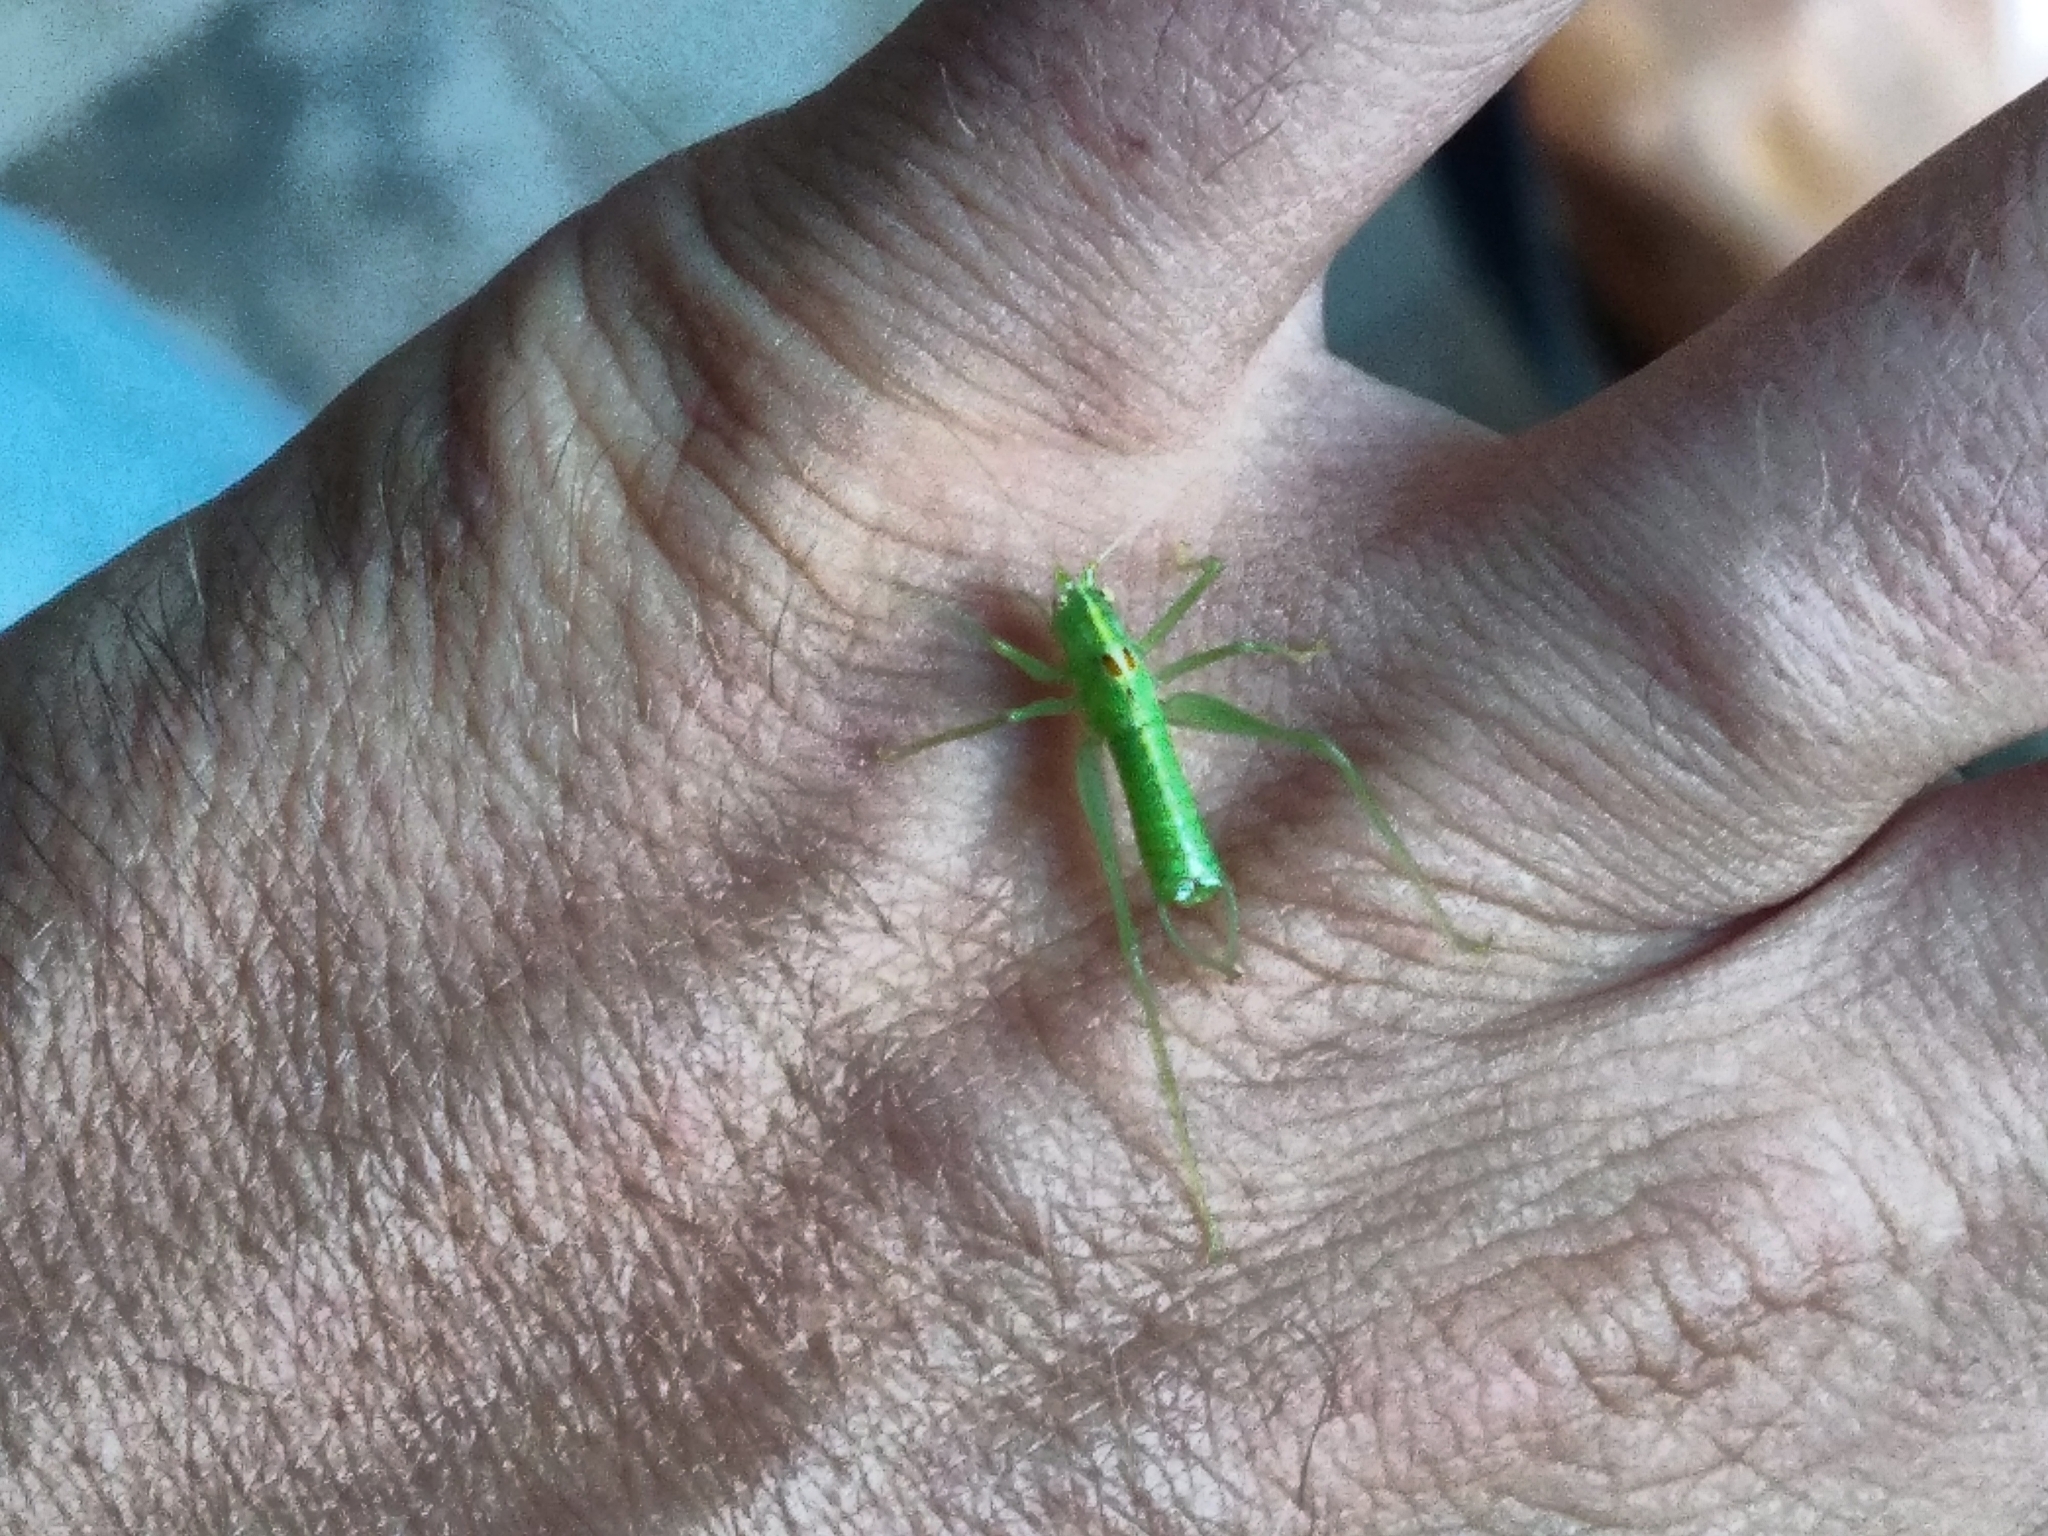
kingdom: Animalia
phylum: Arthropoda
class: Insecta
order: Orthoptera
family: Tettigoniidae
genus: Meconema
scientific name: Meconema meridionale
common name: Southern oak bush-cricket
